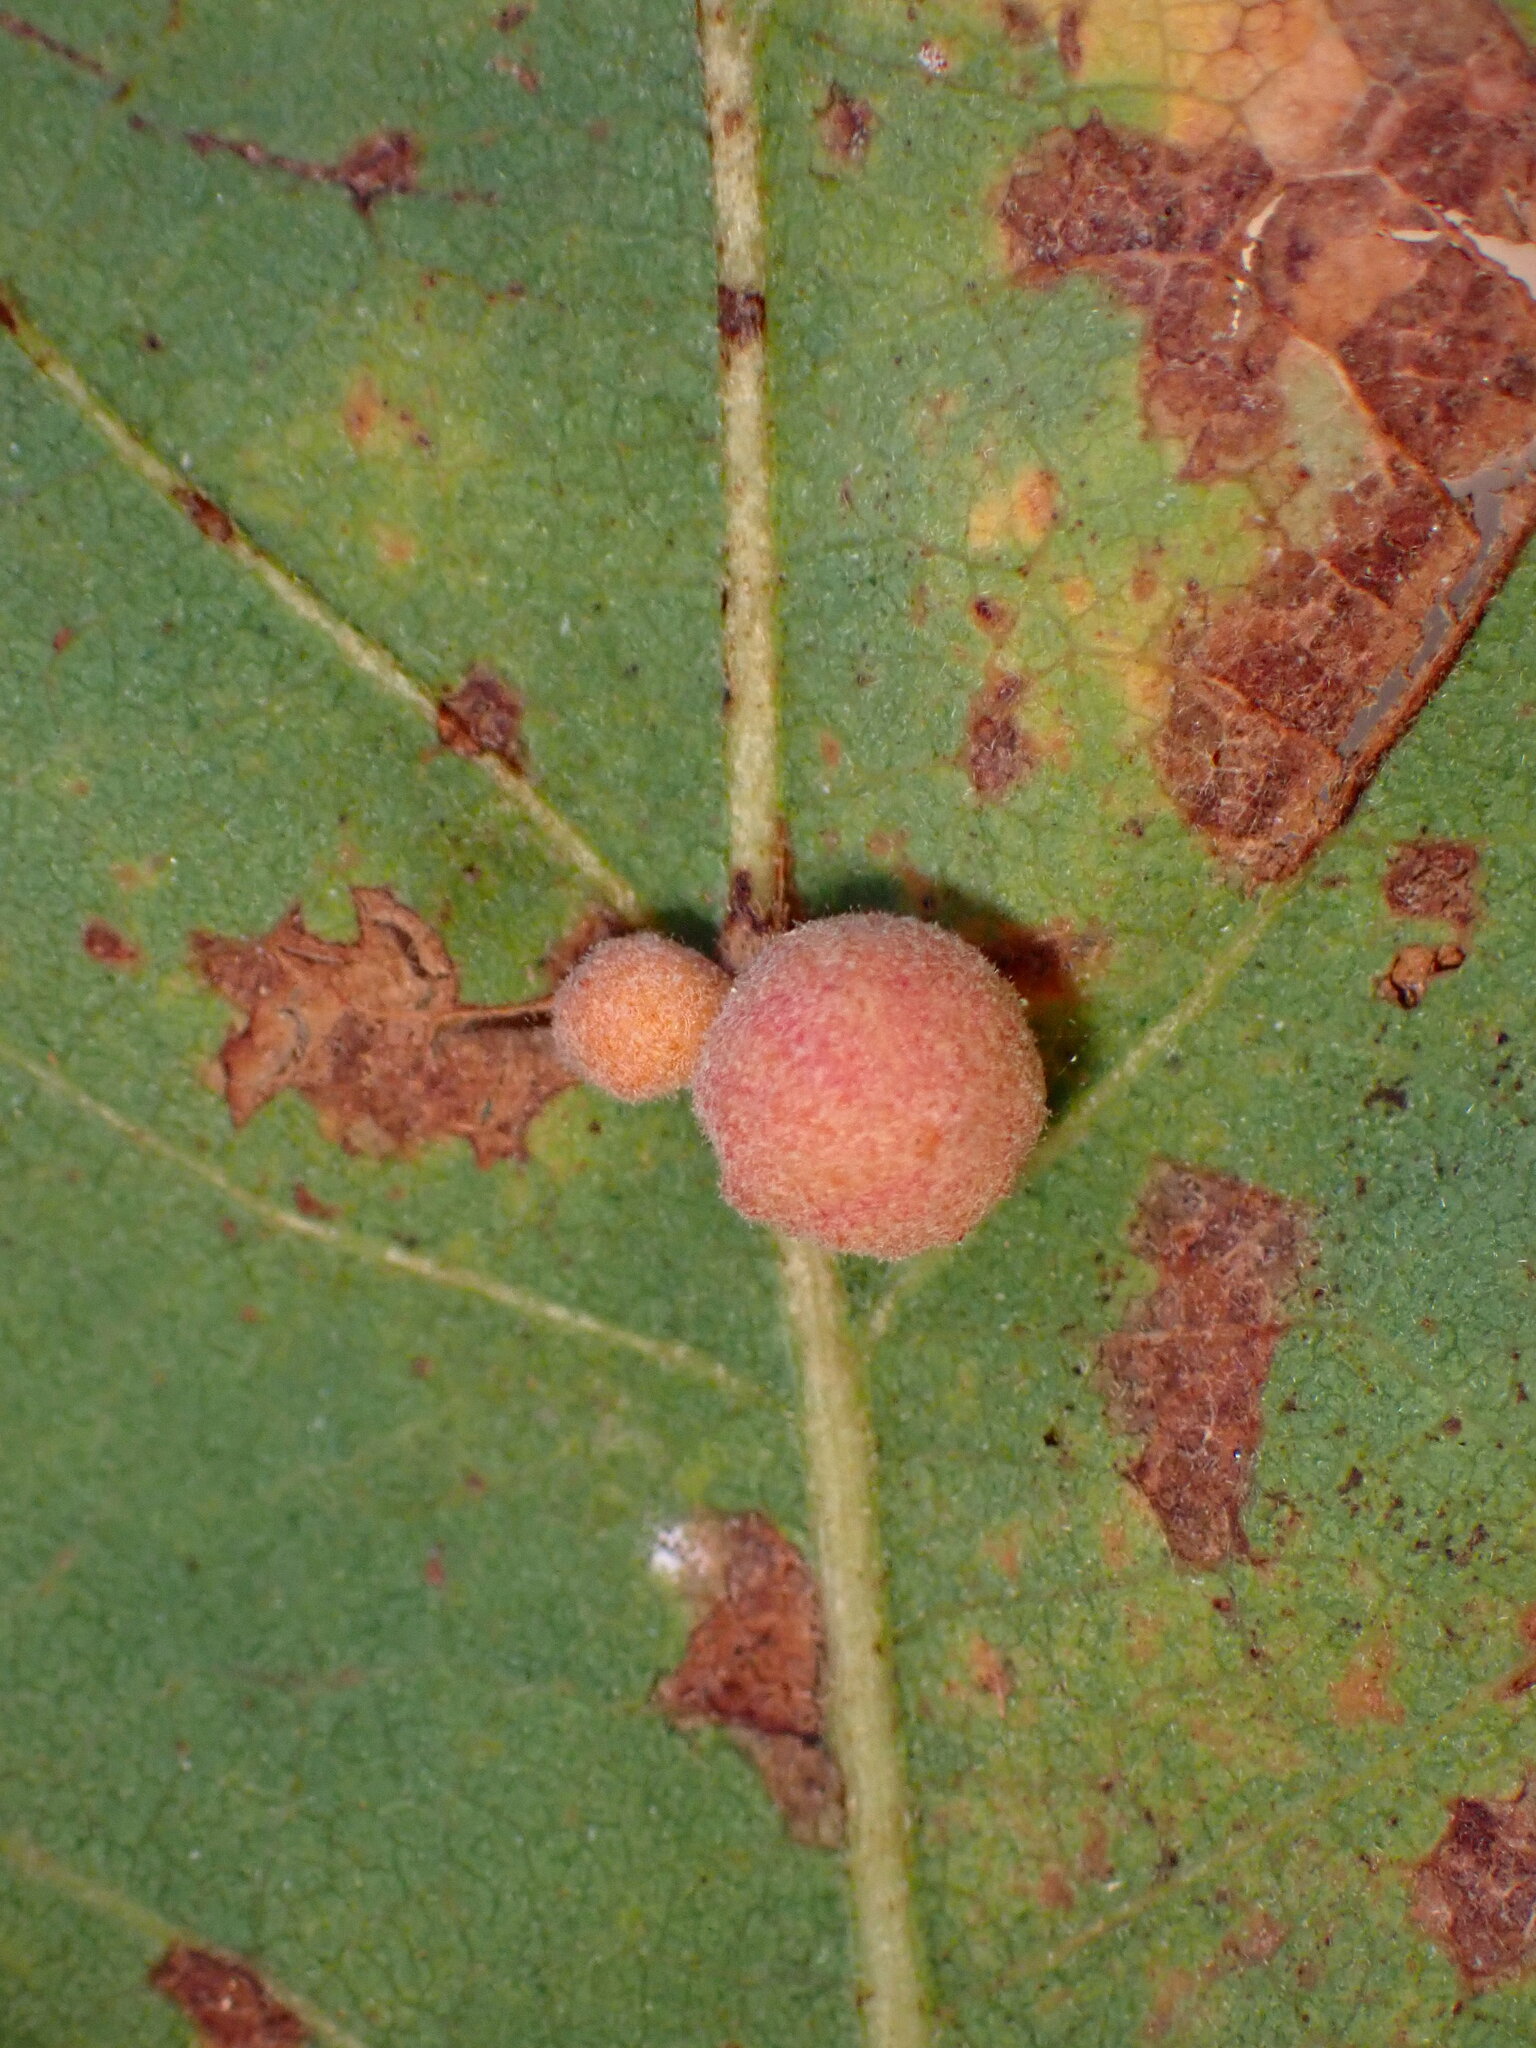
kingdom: Animalia
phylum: Arthropoda
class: Insecta
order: Hymenoptera
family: Cynipidae
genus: Andricus
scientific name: Andricus
